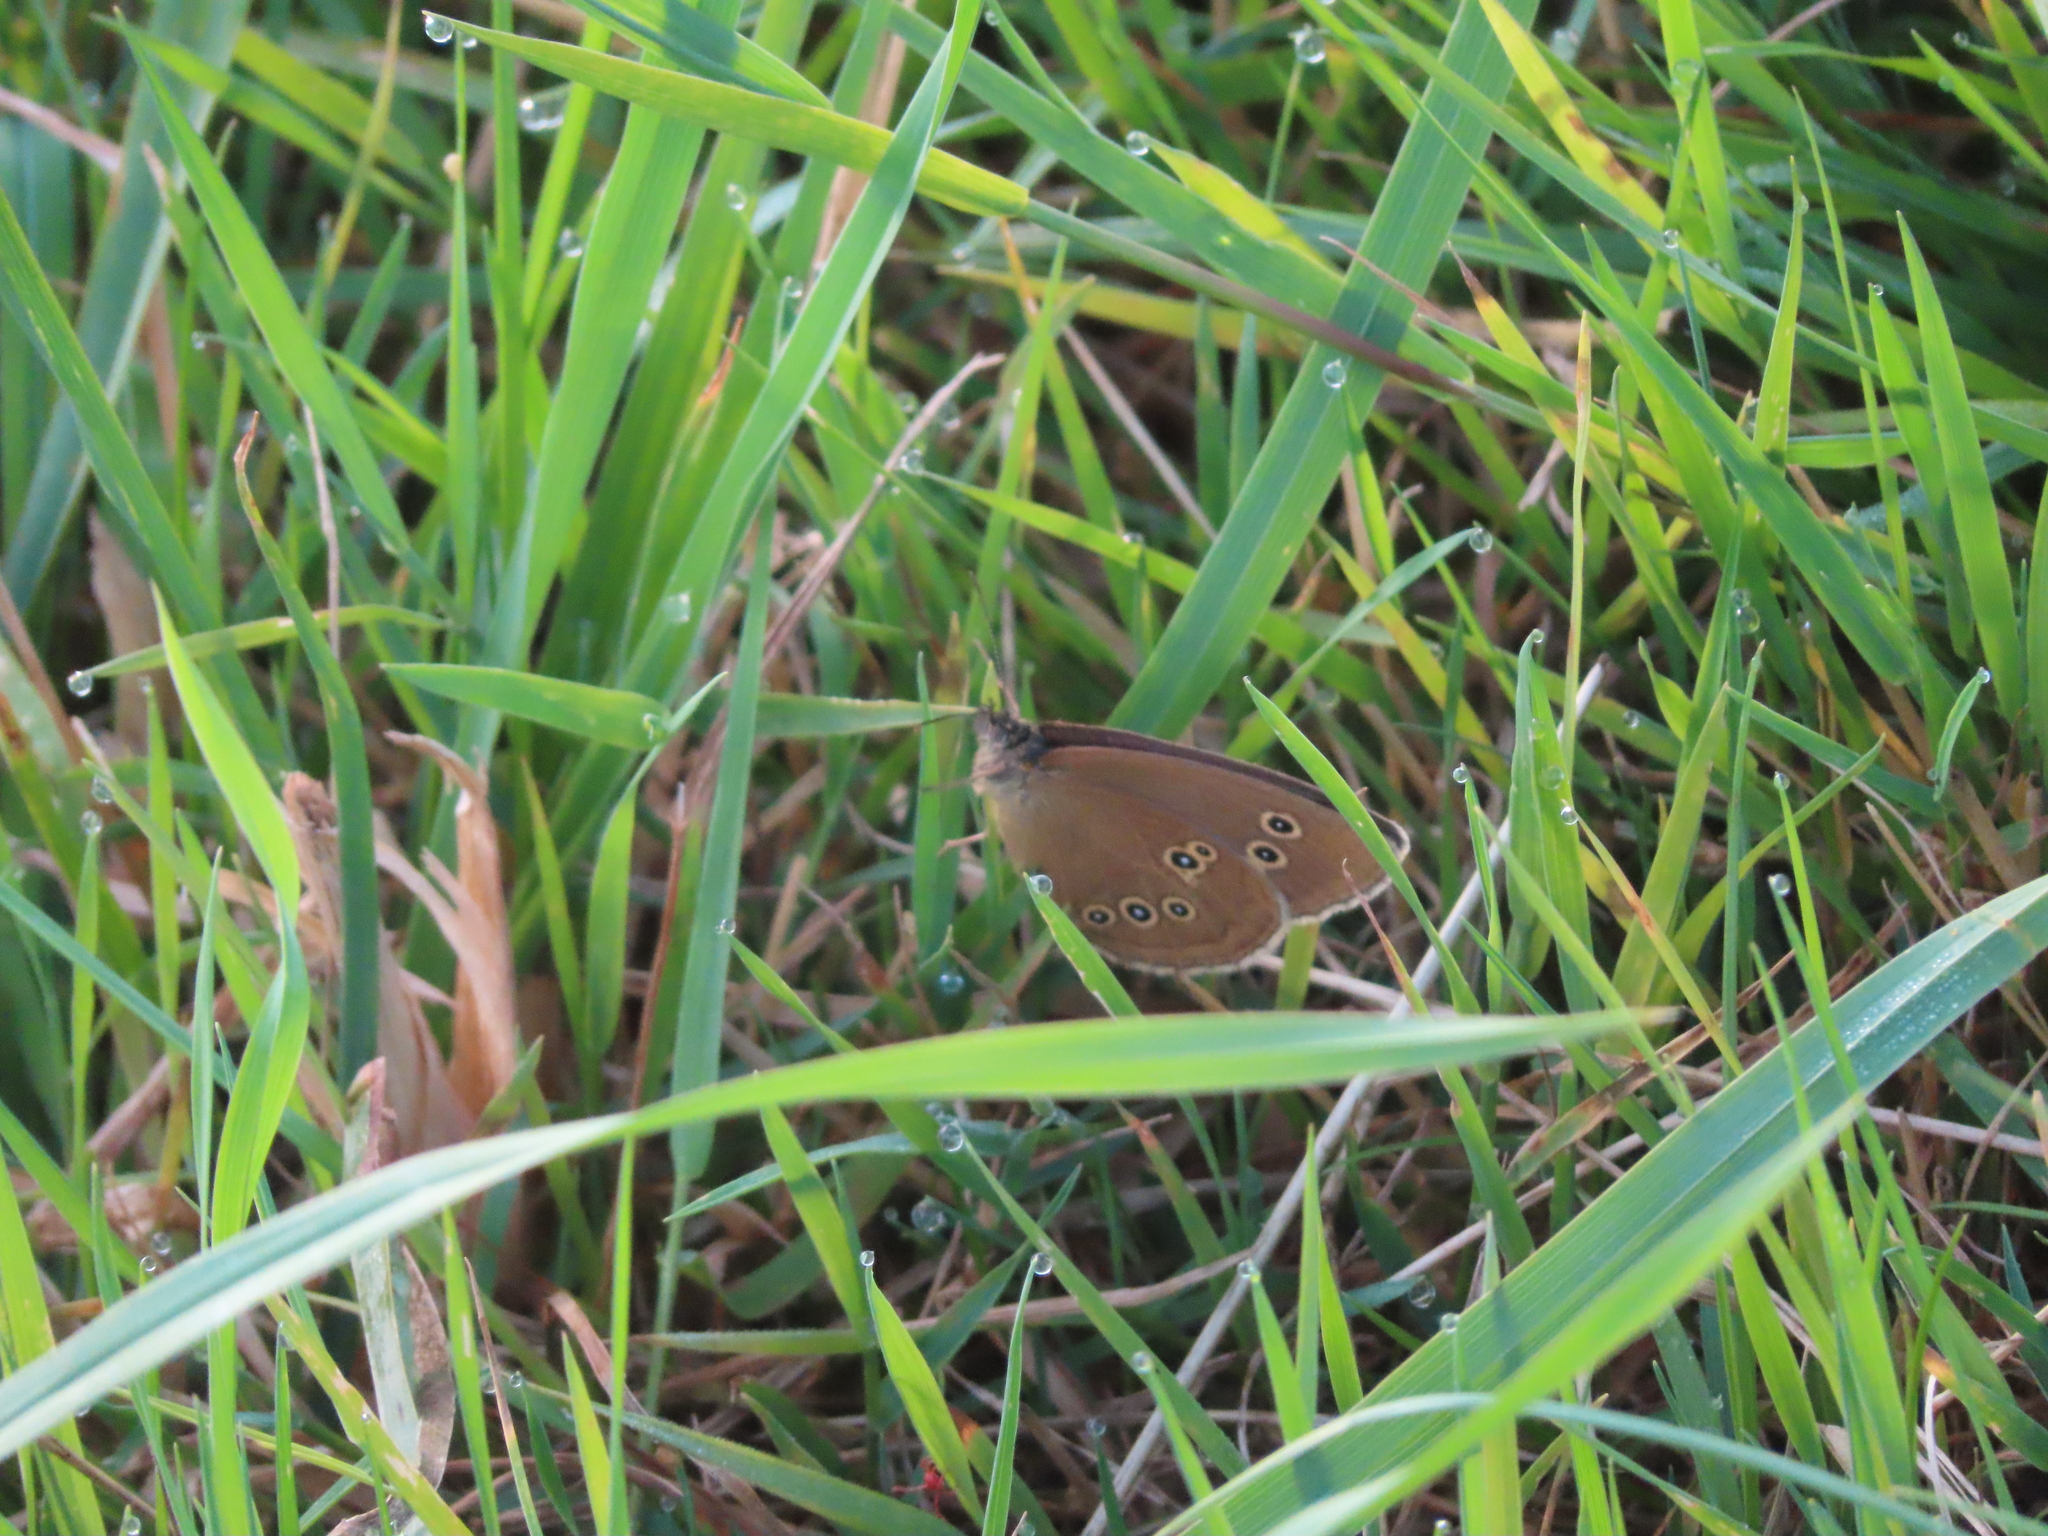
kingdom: Animalia
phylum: Arthropoda
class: Insecta
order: Lepidoptera
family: Nymphalidae
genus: Aphantopus
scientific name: Aphantopus hyperantus
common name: Ringlet
